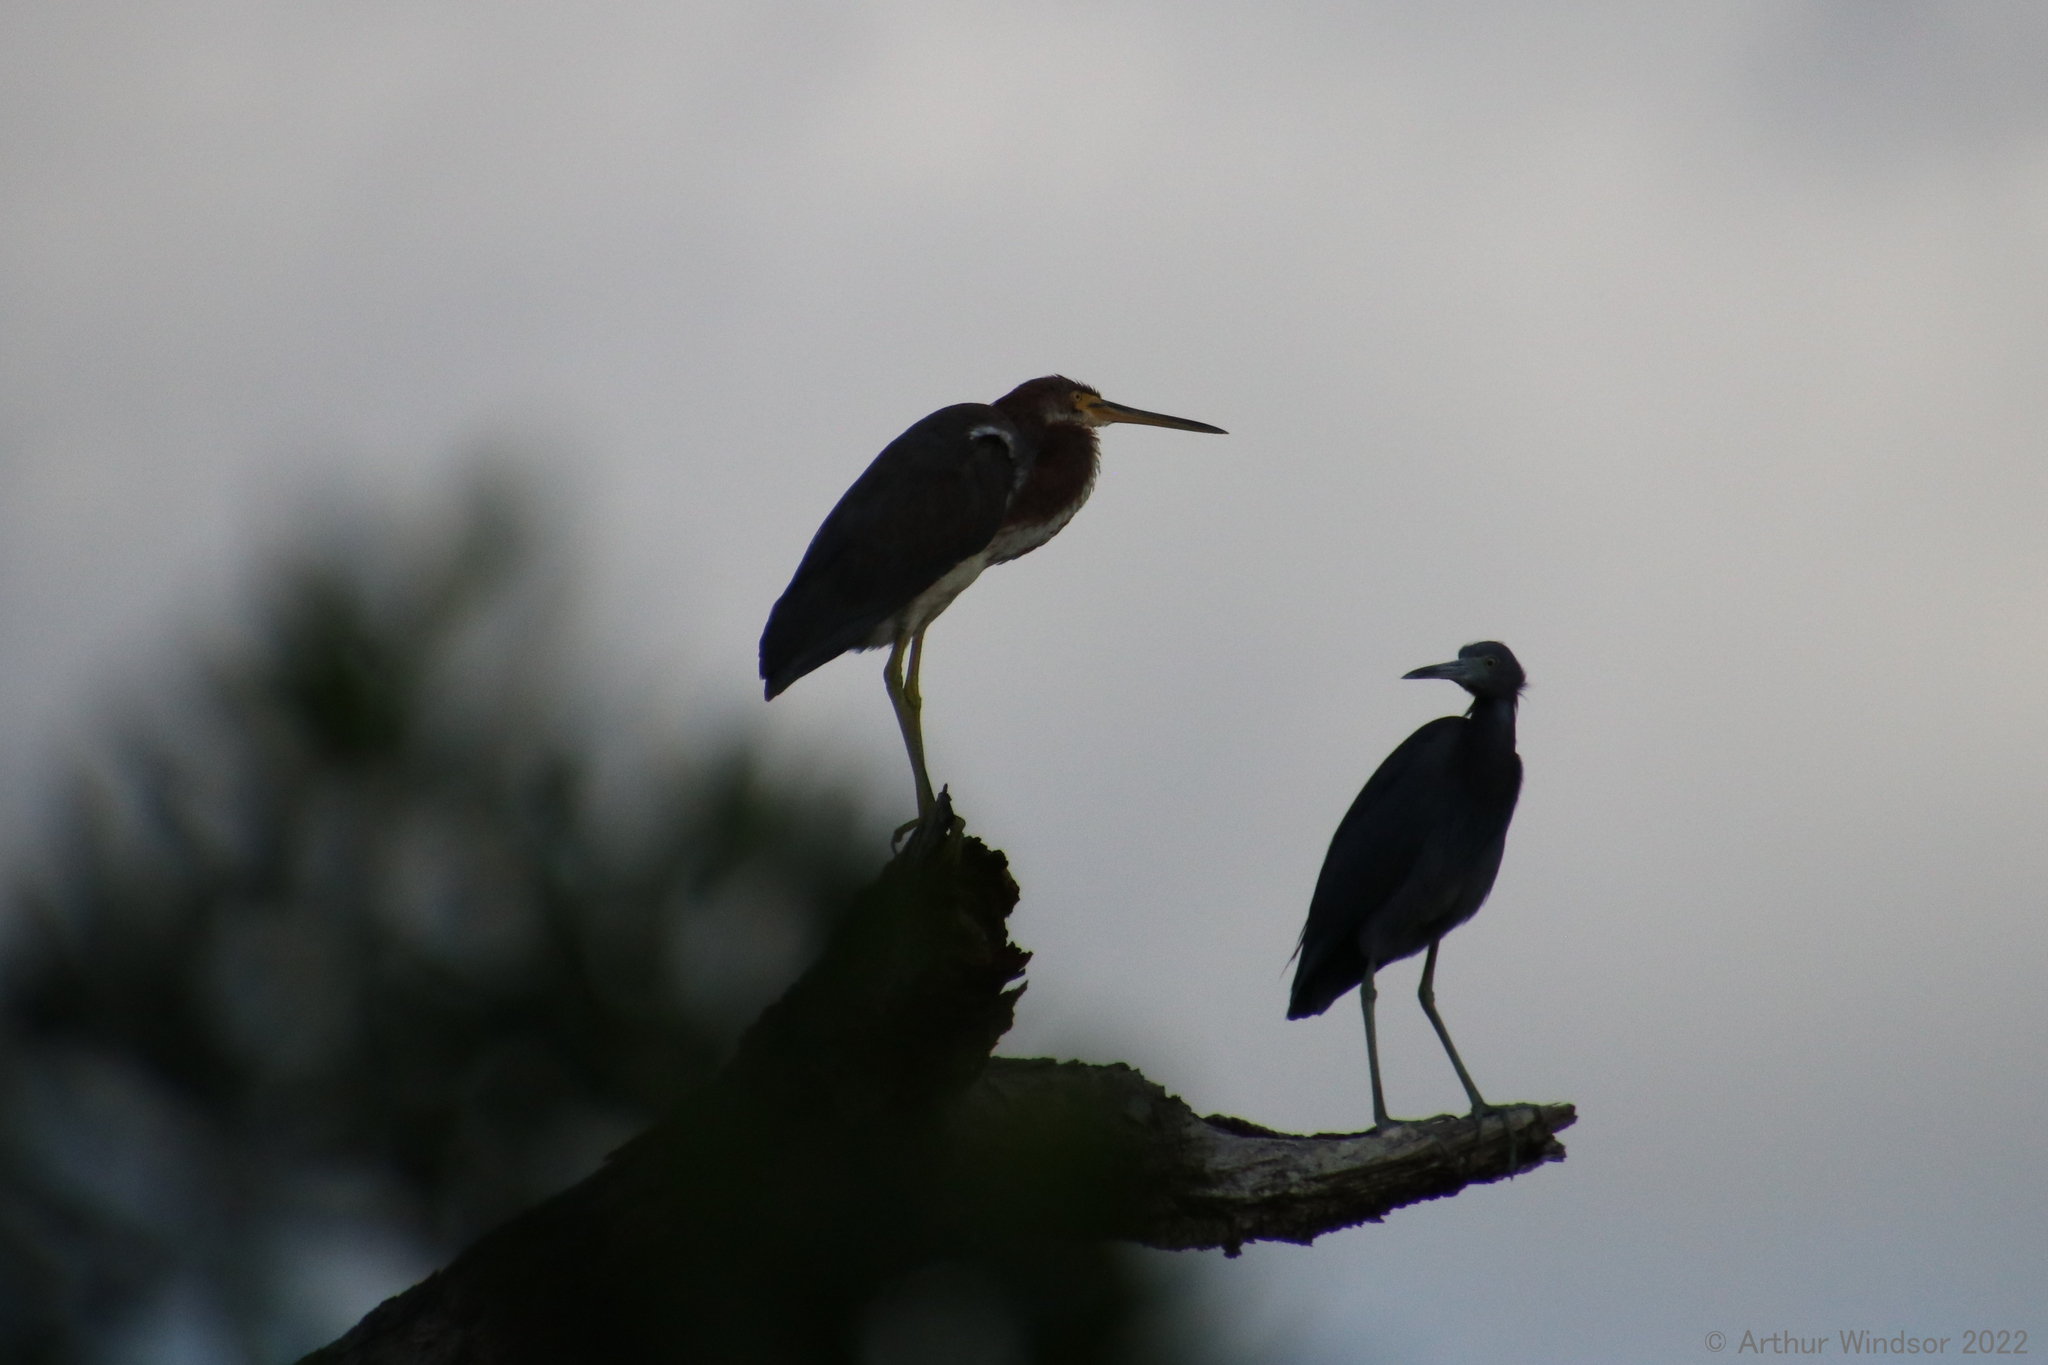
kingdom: Animalia
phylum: Chordata
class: Aves
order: Pelecaniformes
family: Ardeidae
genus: Egretta
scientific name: Egretta tricolor
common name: Tricolored heron
